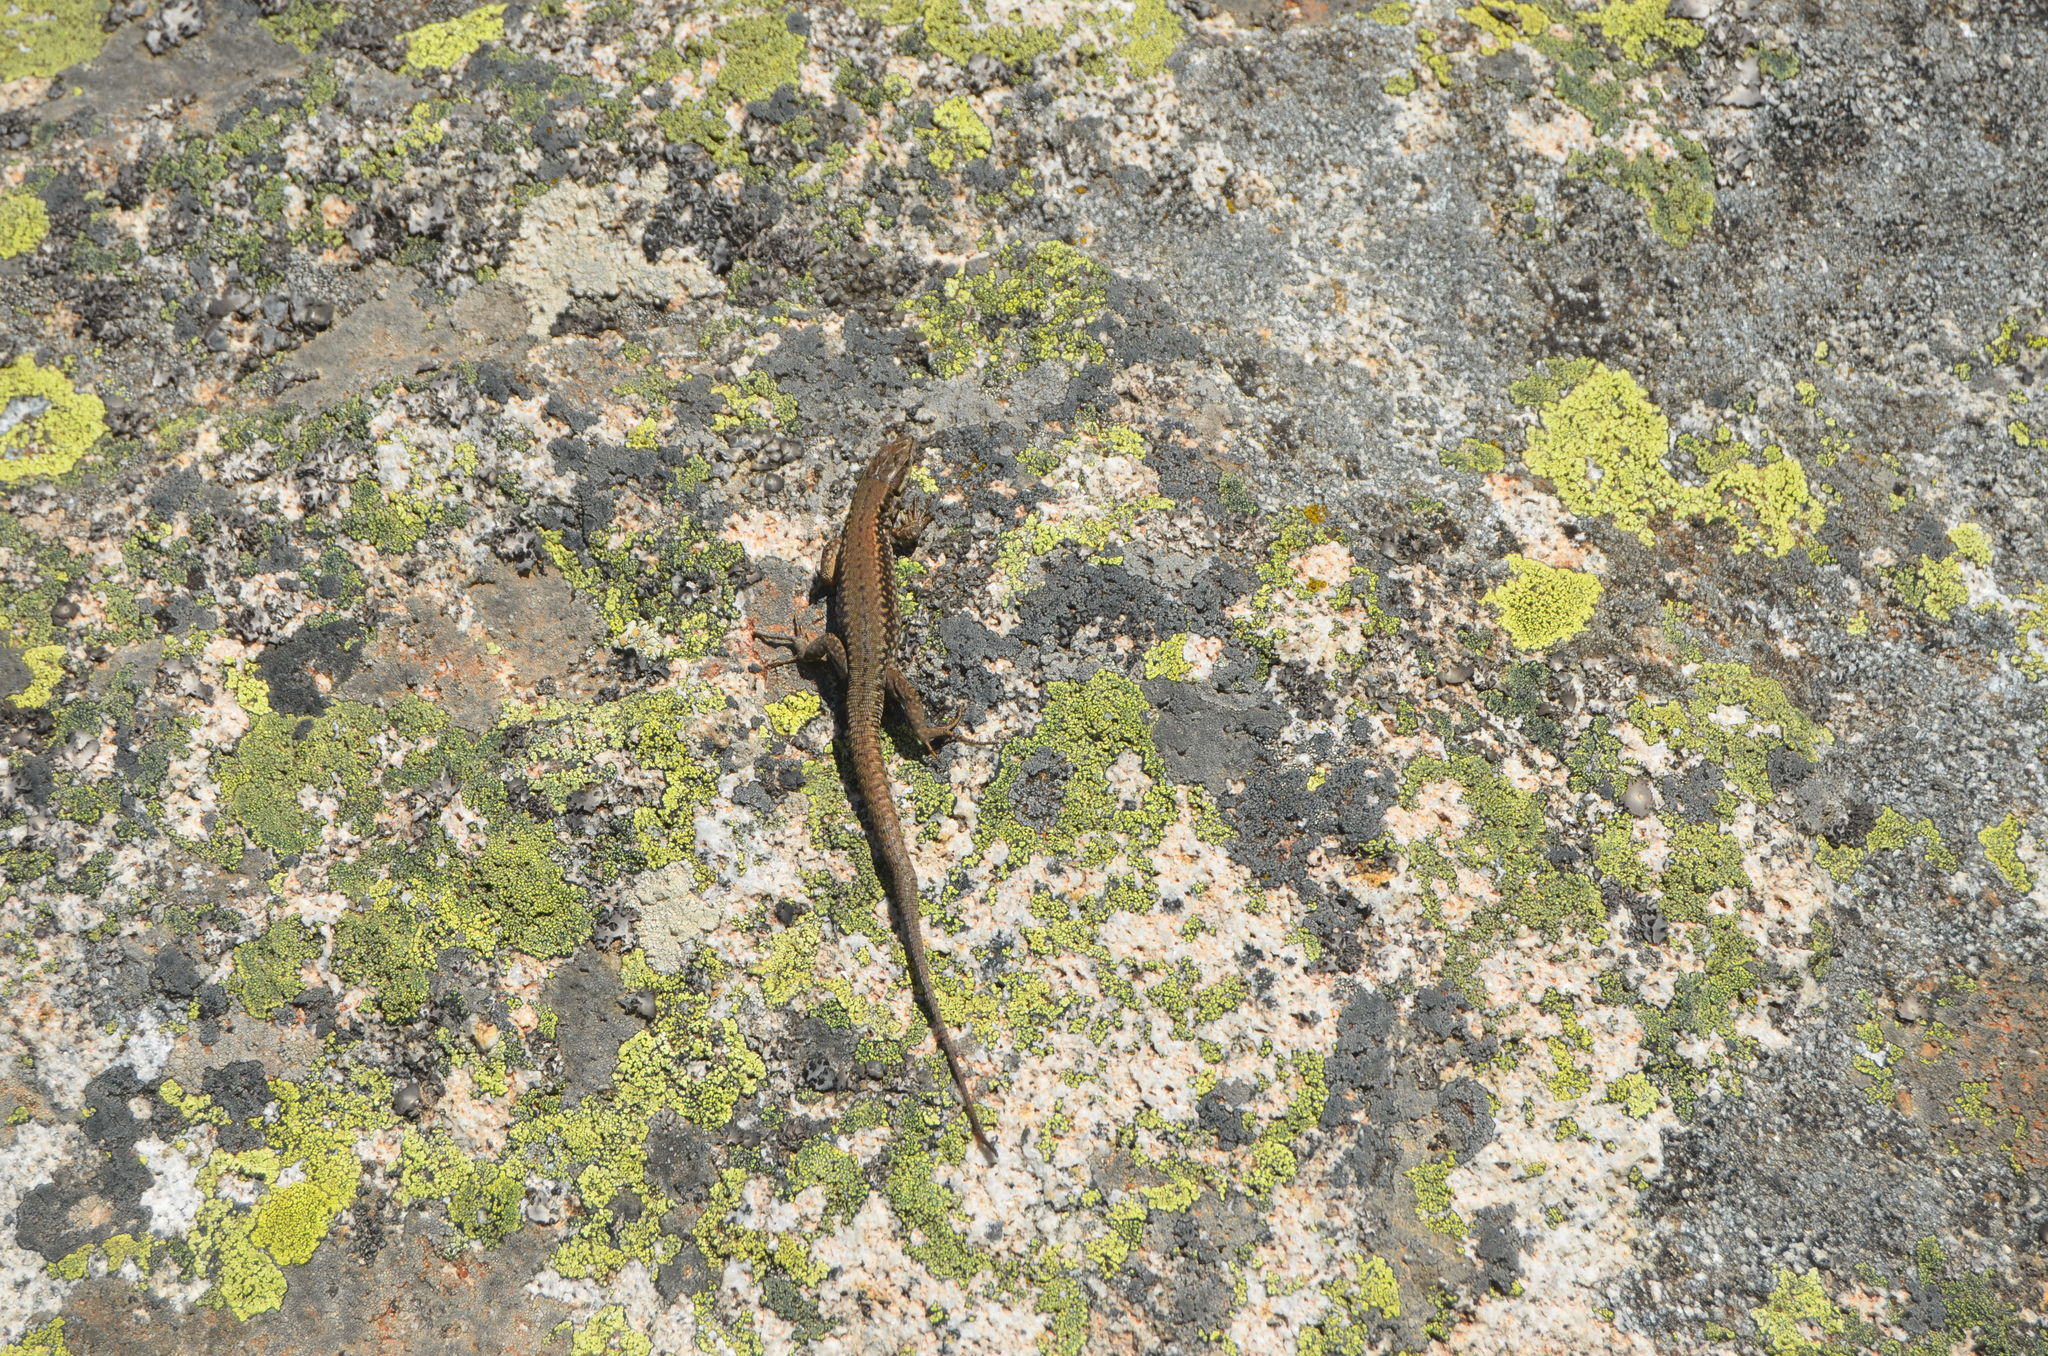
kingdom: Animalia
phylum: Chordata
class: Squamata
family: Lacertidae
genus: Podarcis
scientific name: Podarcis muralis
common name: Common wall lizard
